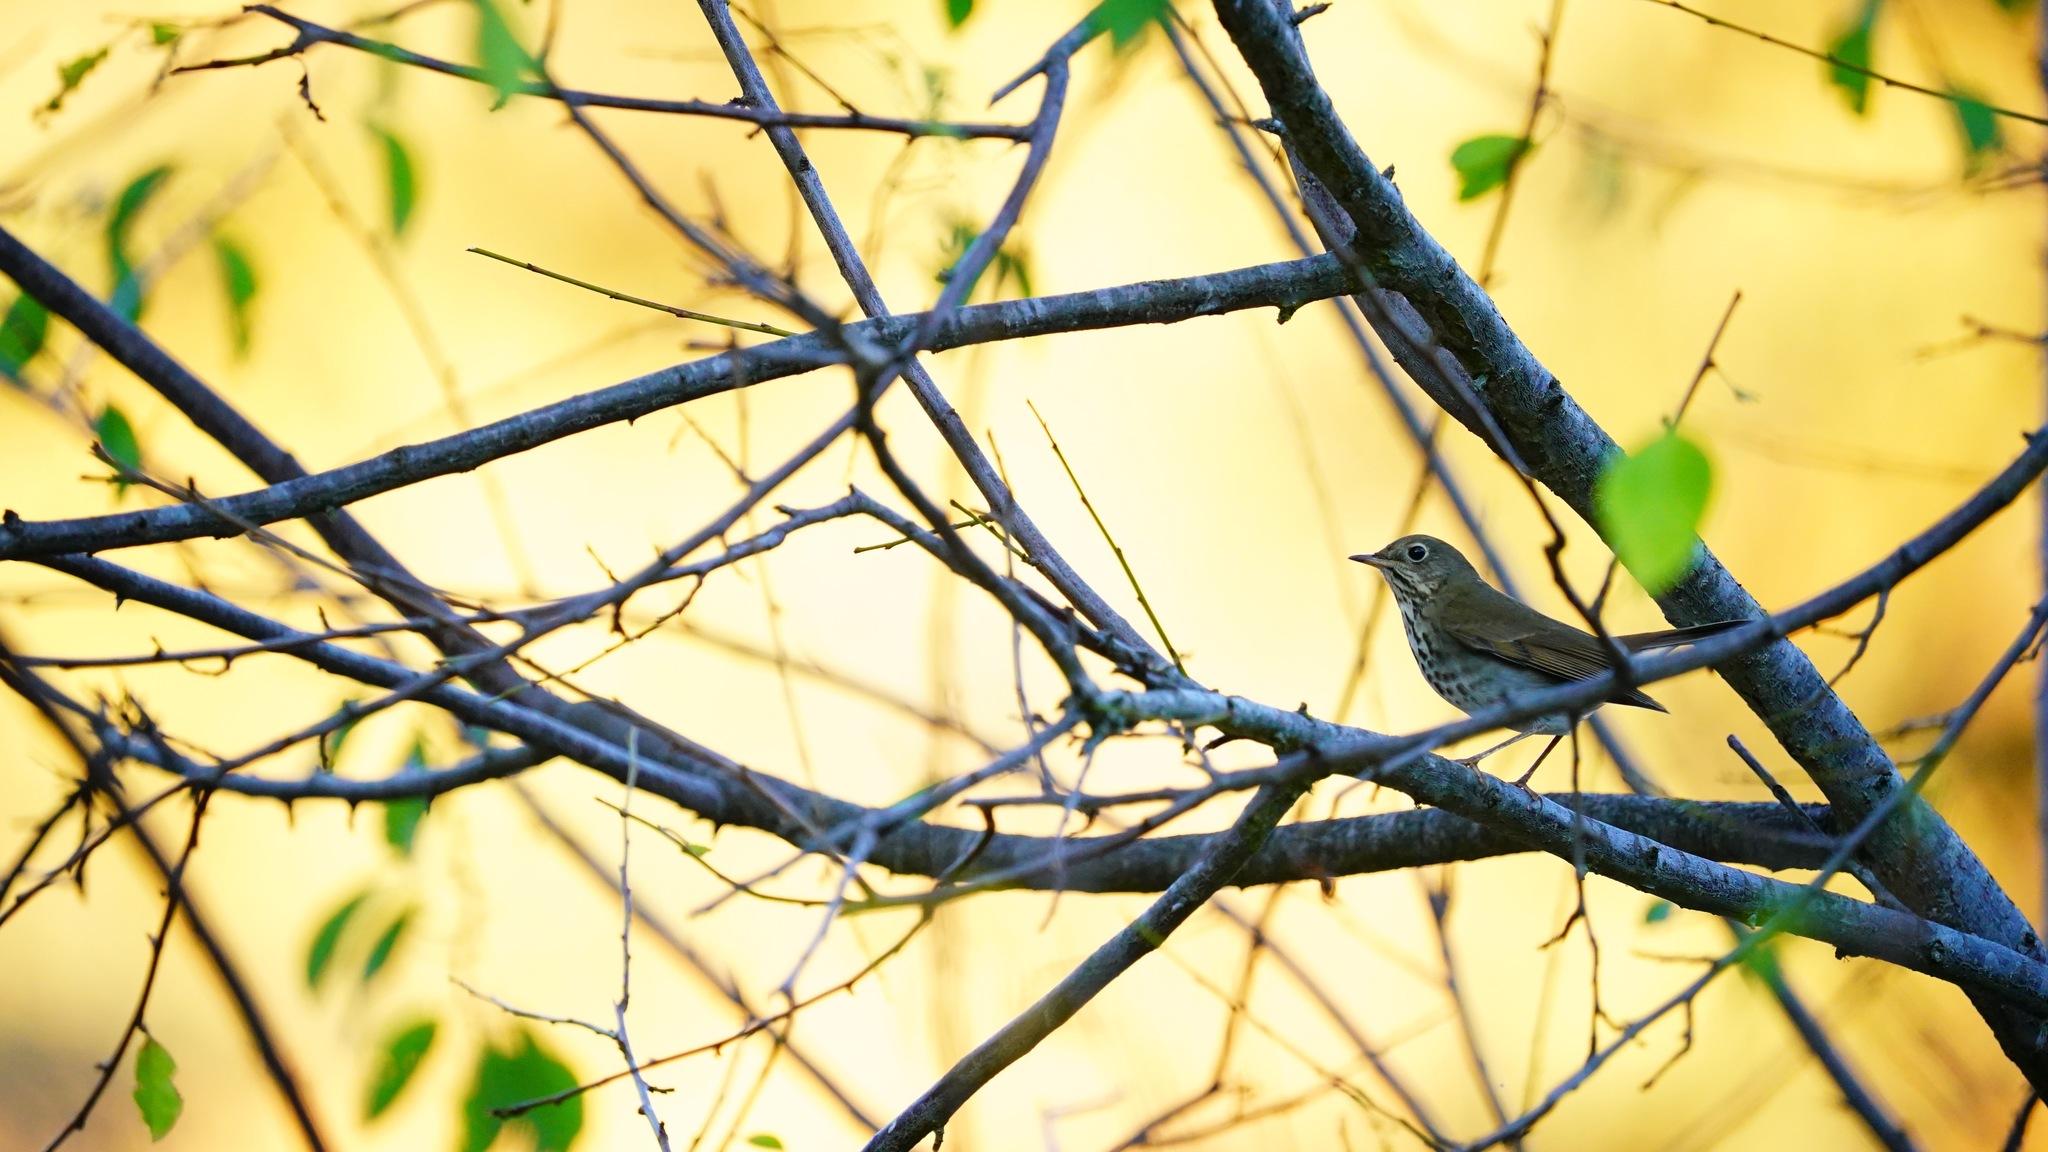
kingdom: Animalia
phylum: Chordata
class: Aves
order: Passeriformes
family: Turdidae
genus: Catharus
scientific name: Catharus guttatus
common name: Hermit thrush
